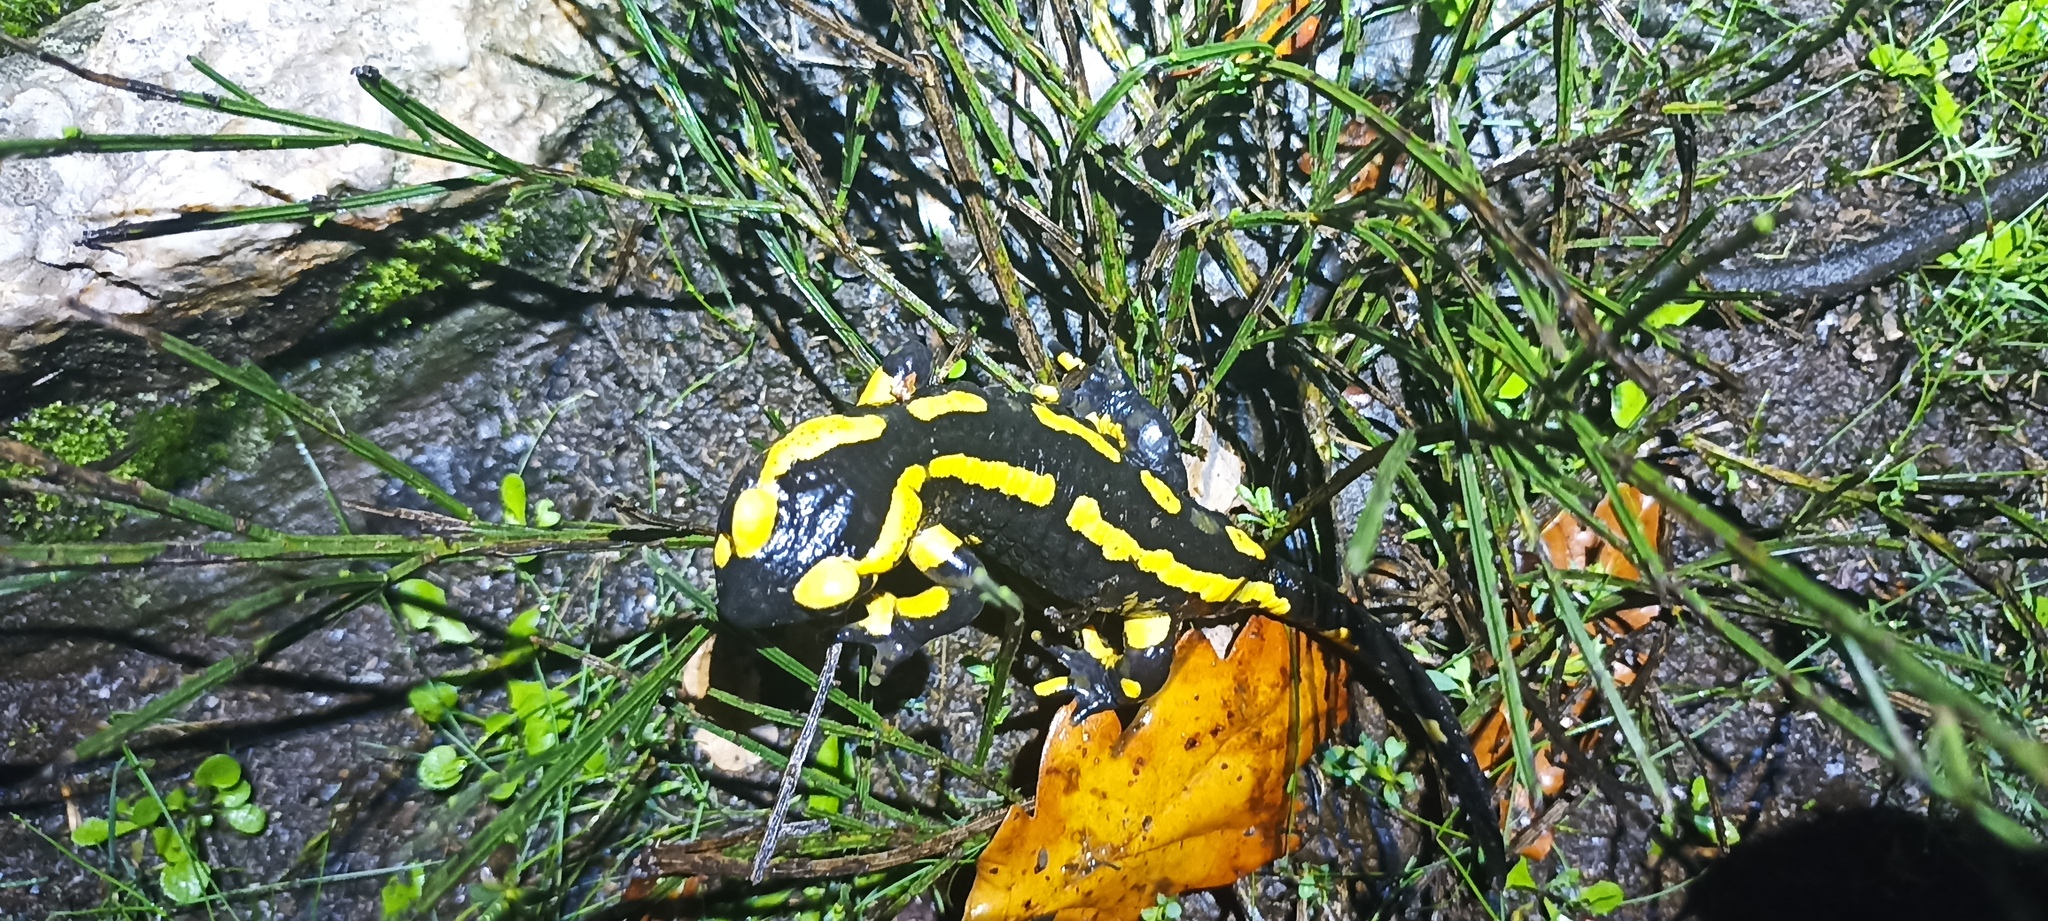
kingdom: Animalia
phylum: Chordata
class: Amphibia
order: Caudata
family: Salamandridae
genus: Salamandra
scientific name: Salamandra salamandra
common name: Fire salamander
